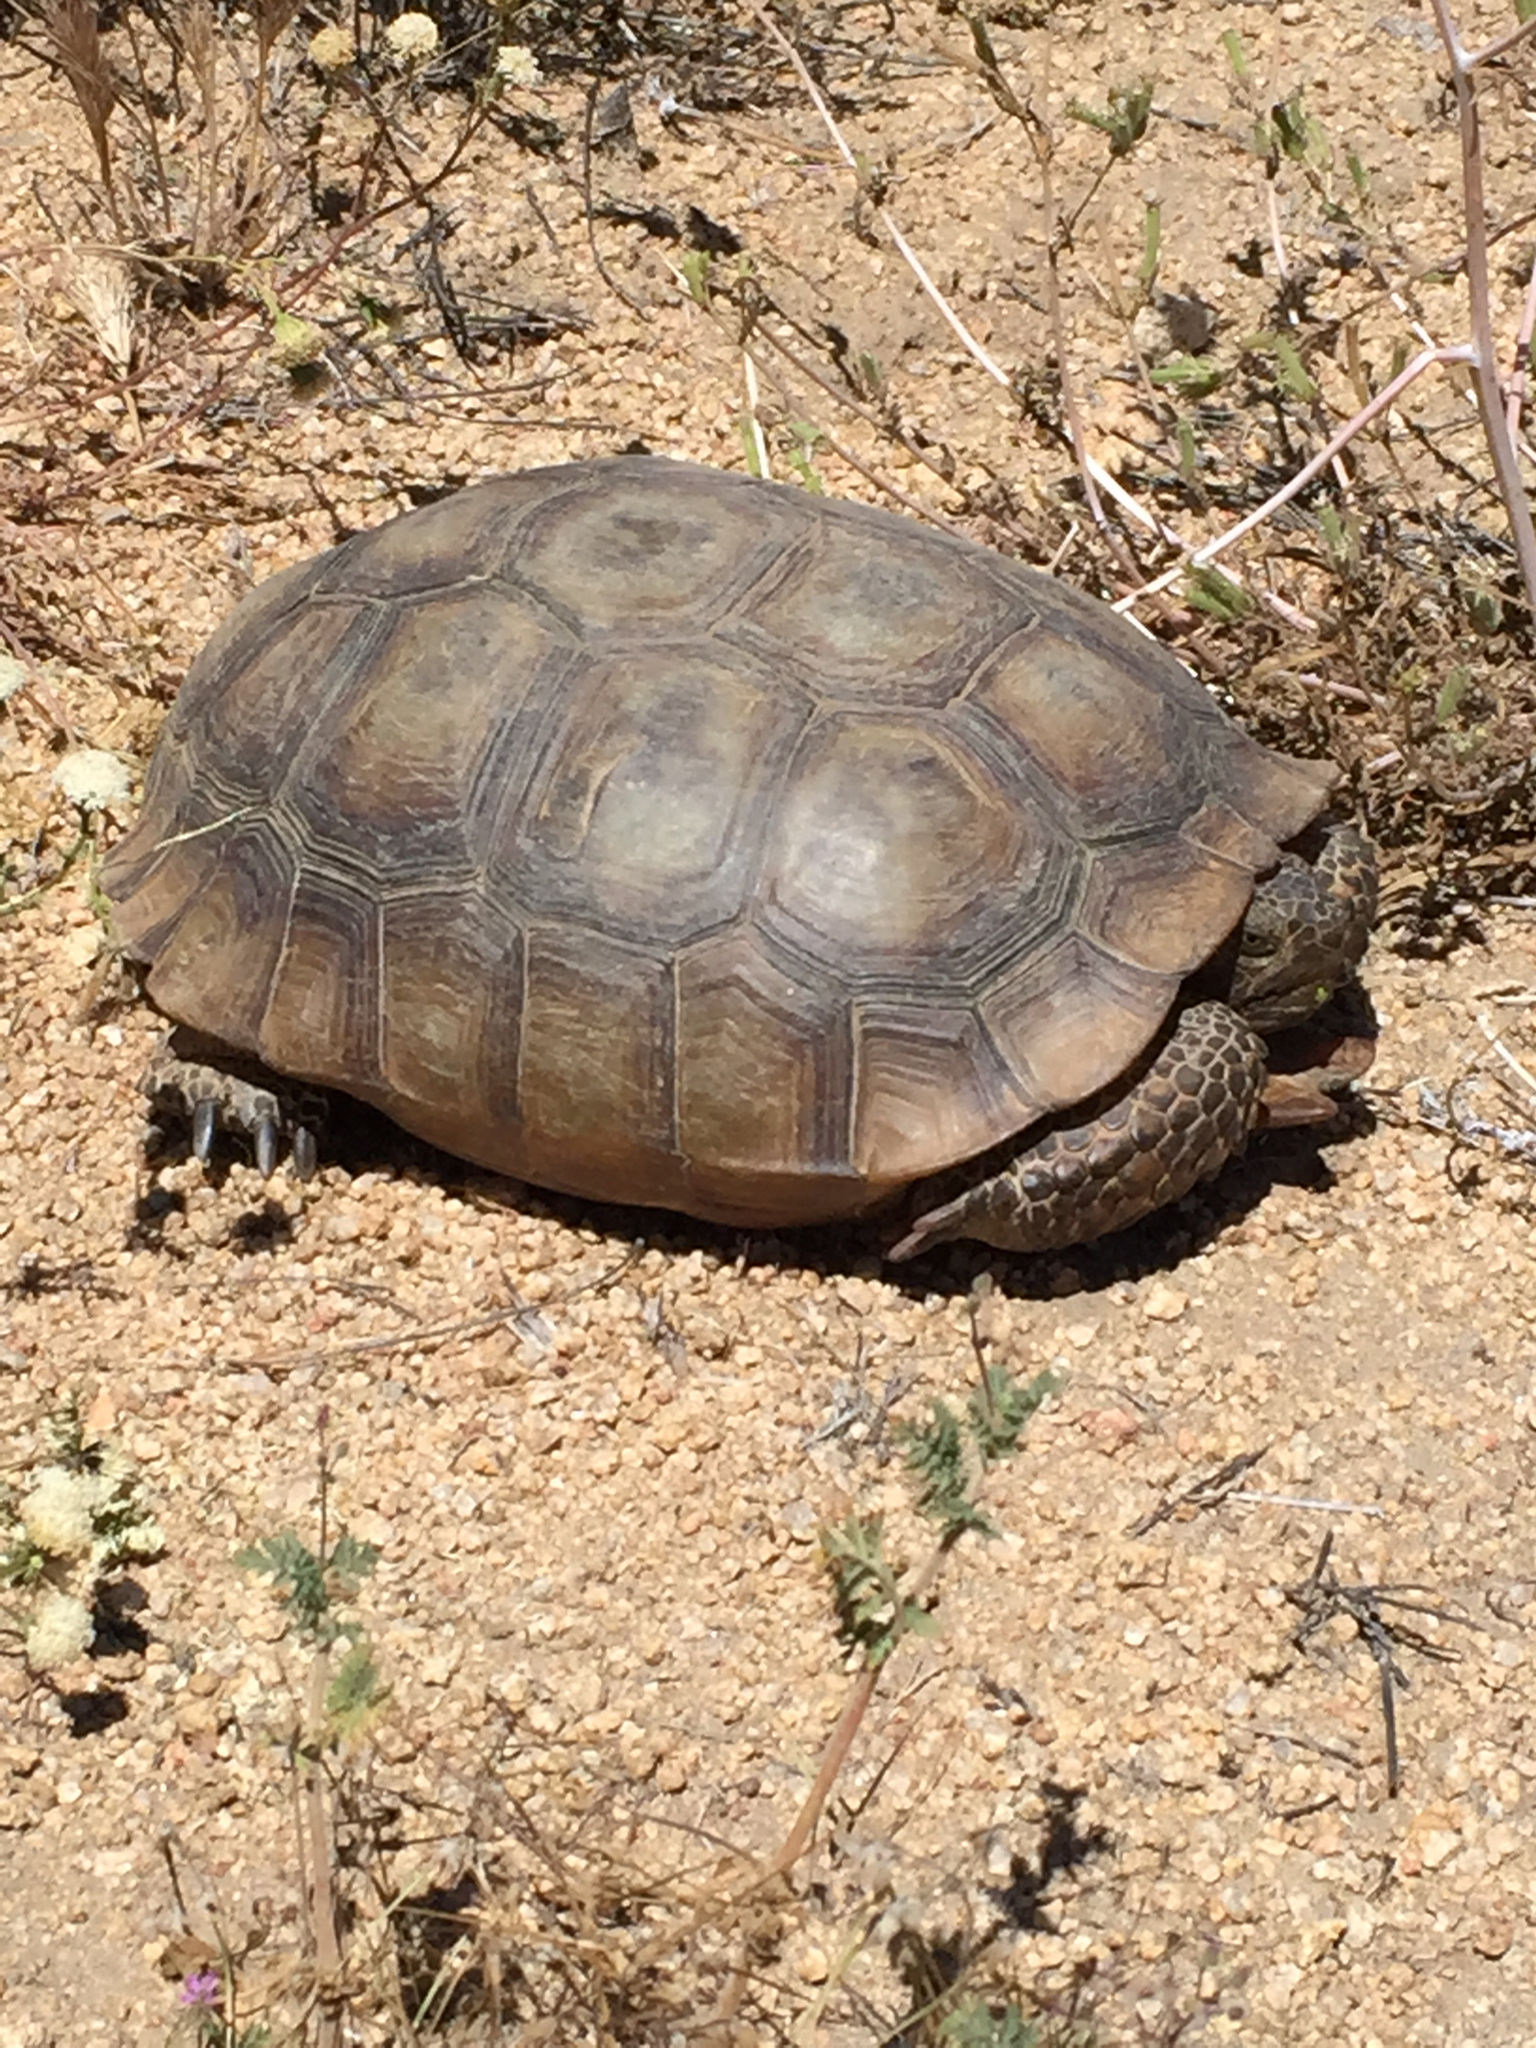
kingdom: Animalia
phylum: Chordata
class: Testudines
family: Testudinidae
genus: Gopherus
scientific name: Gopherus agassizii
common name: Mojave desert tortoise
